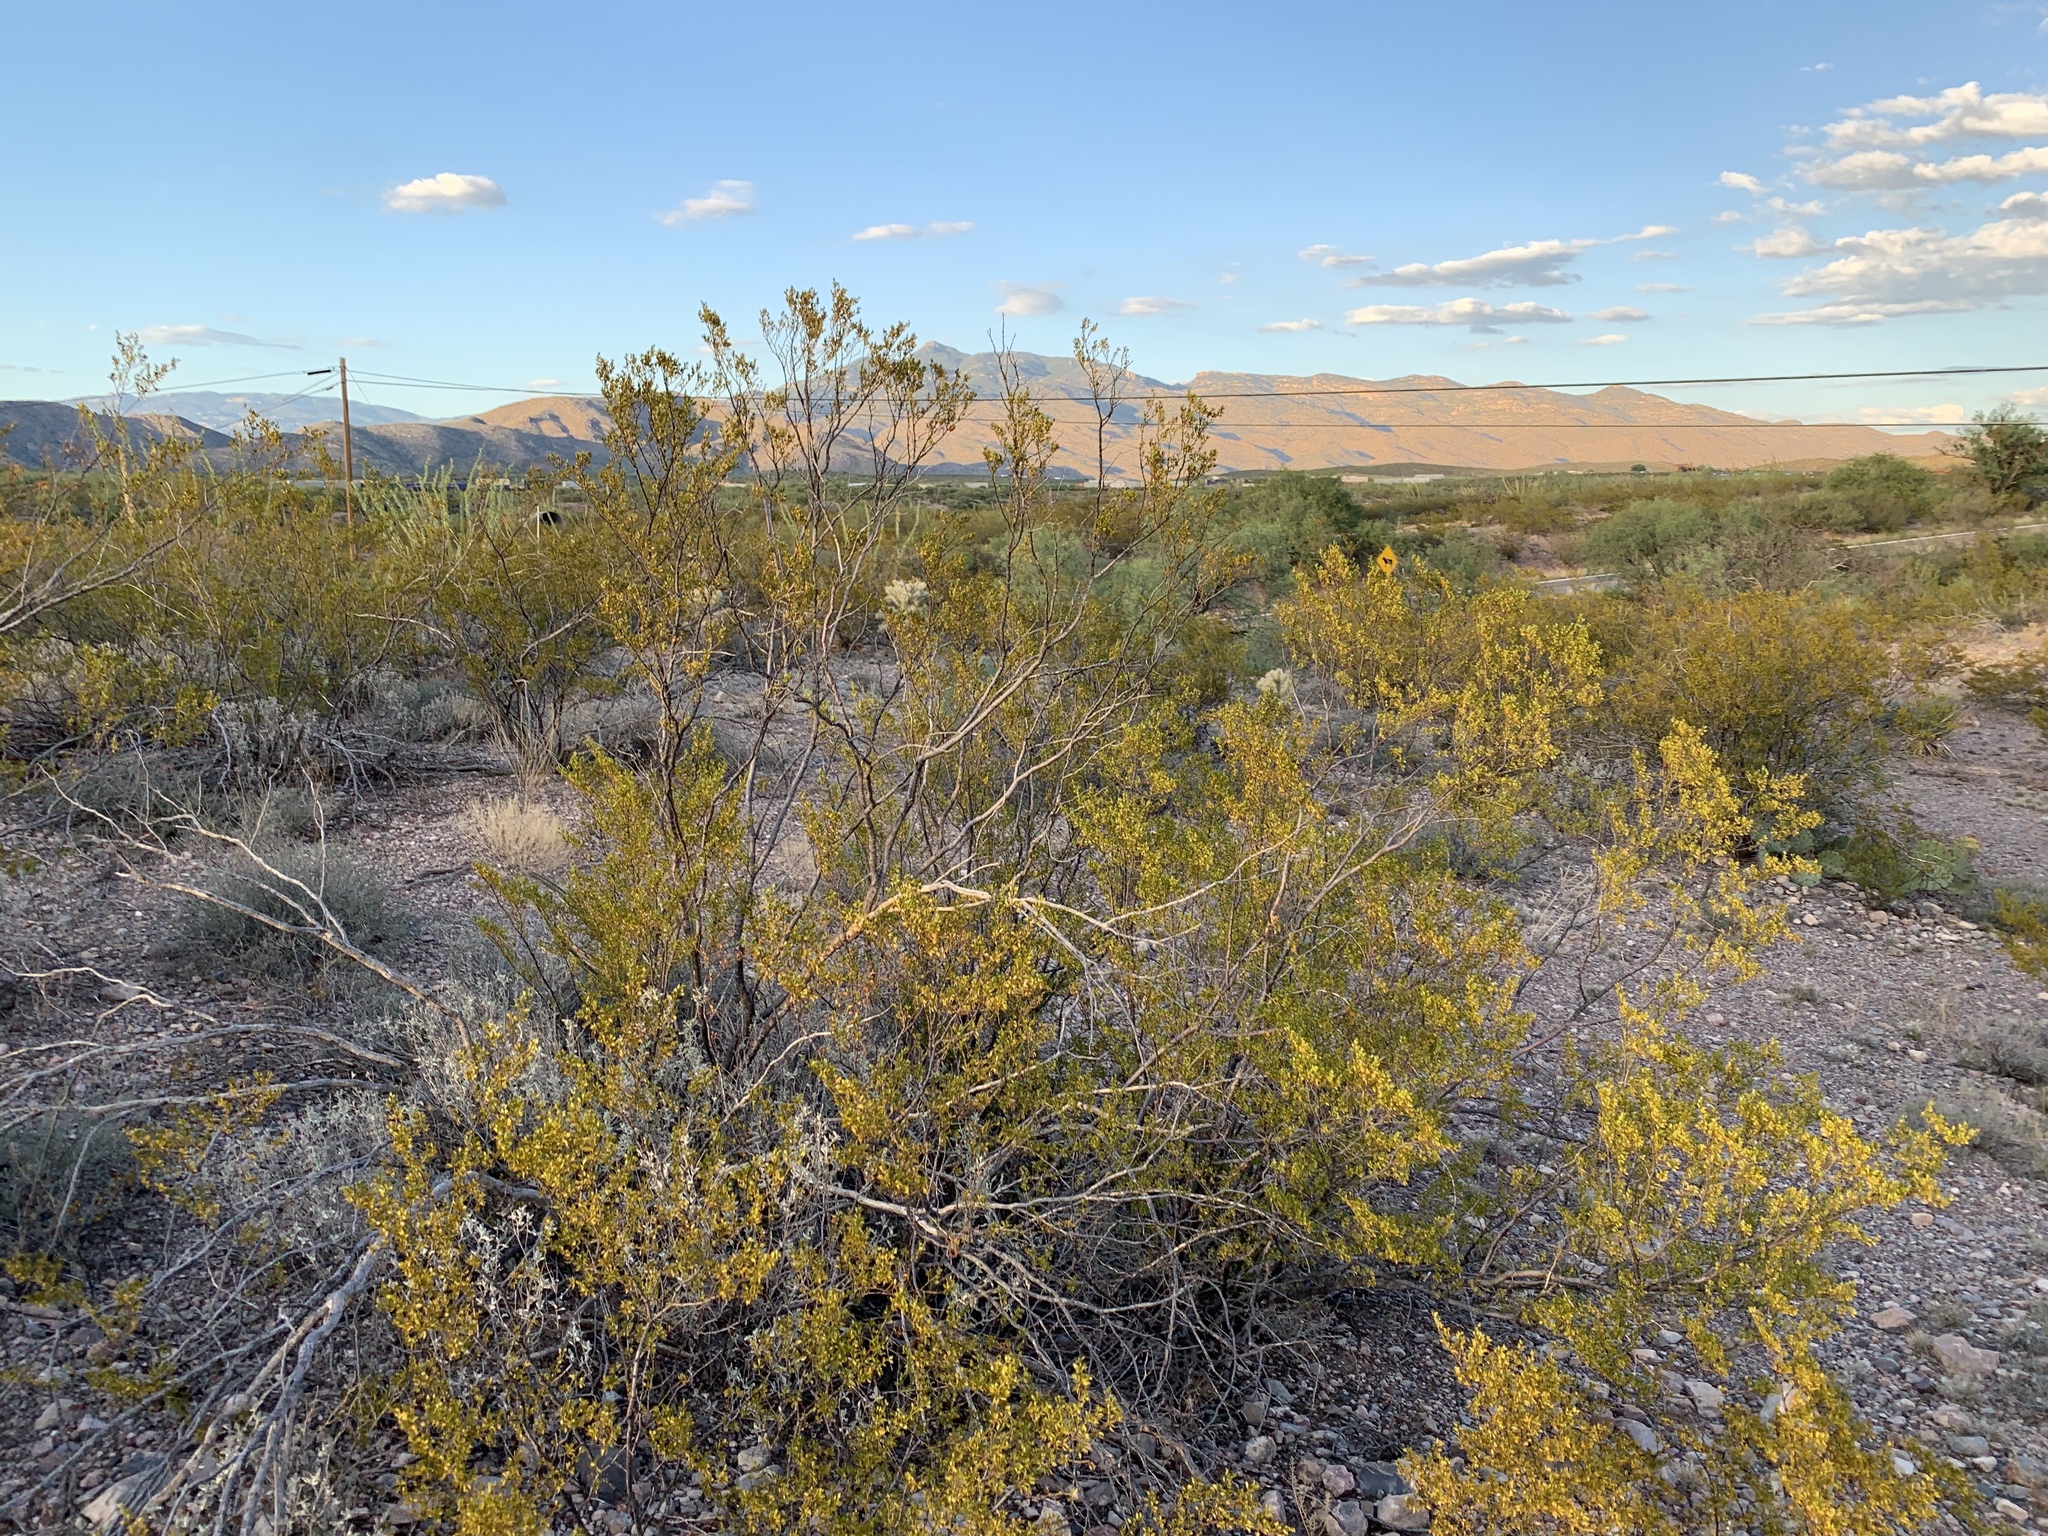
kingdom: Plantae
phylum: Tracheophyta
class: Magnoliopsida
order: Zygophyllales
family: Zygophyllaceae
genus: Larrea
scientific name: Larrea tridentata
